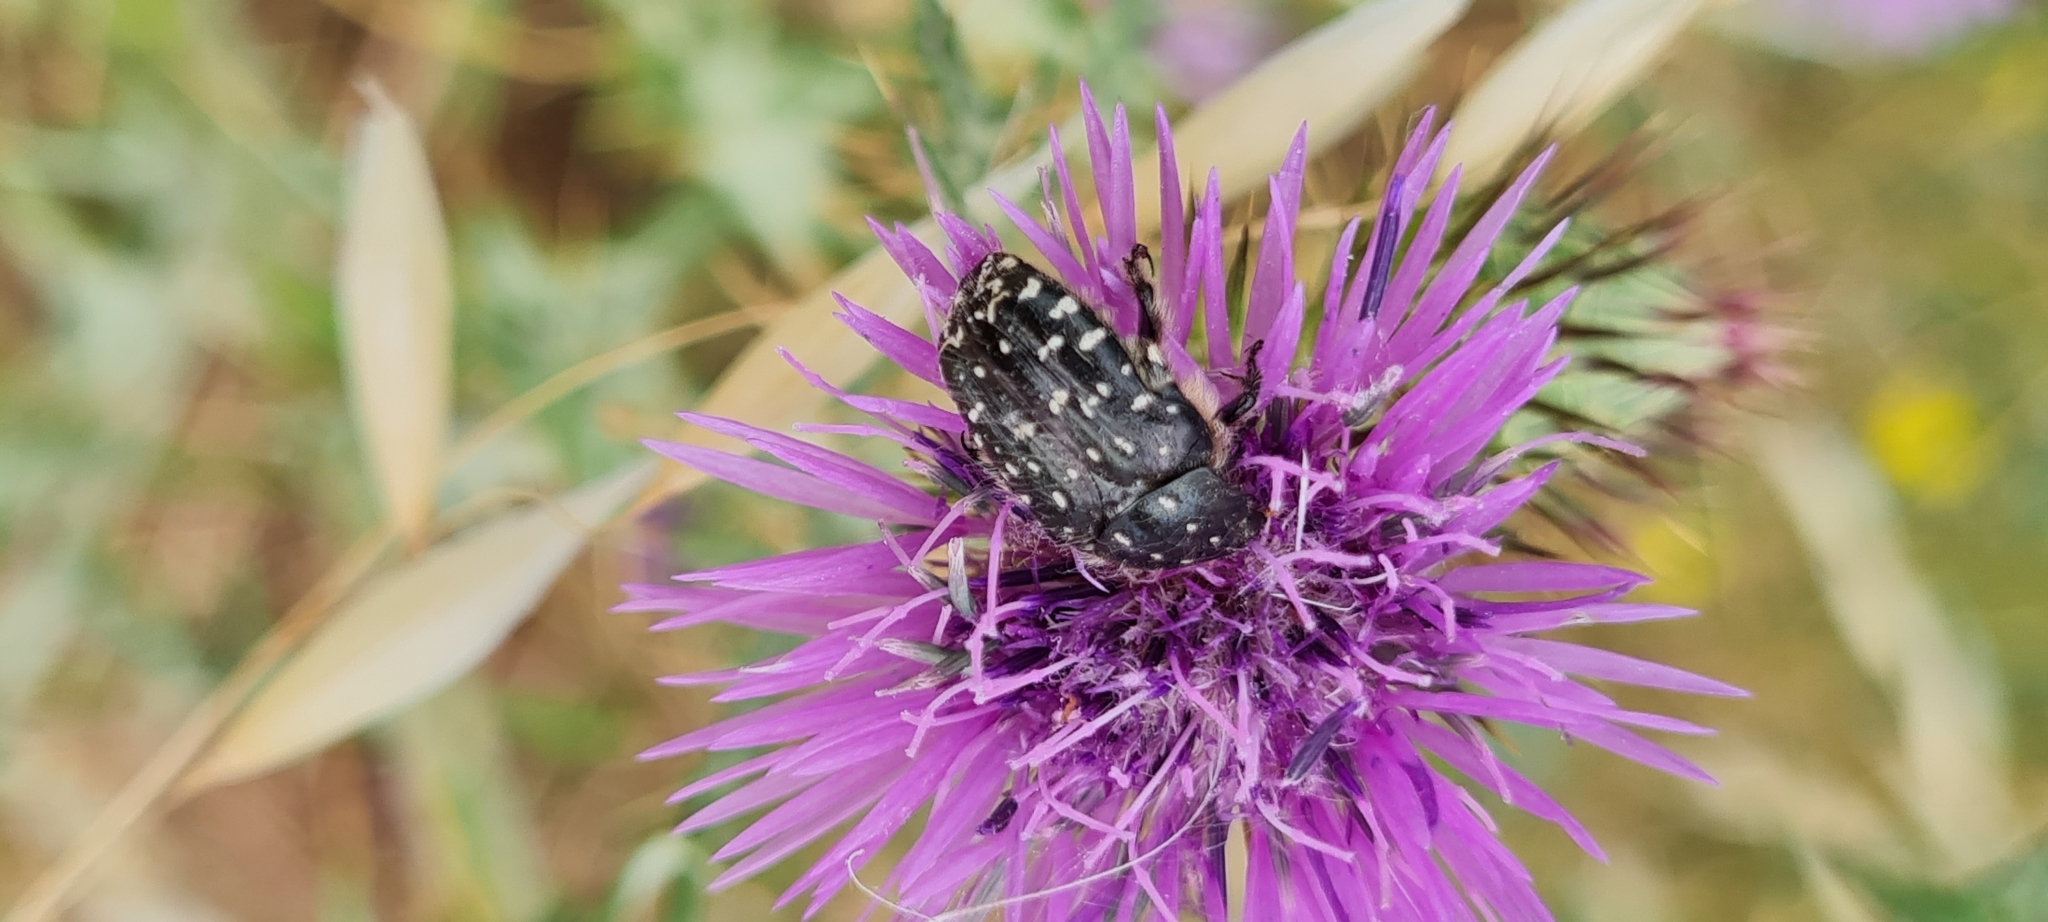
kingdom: Animalia
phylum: Arthropoda
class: Insecta
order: Coleoptera
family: Scarabaeidae
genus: Oxythyrea
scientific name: Oxythyrea funesta
